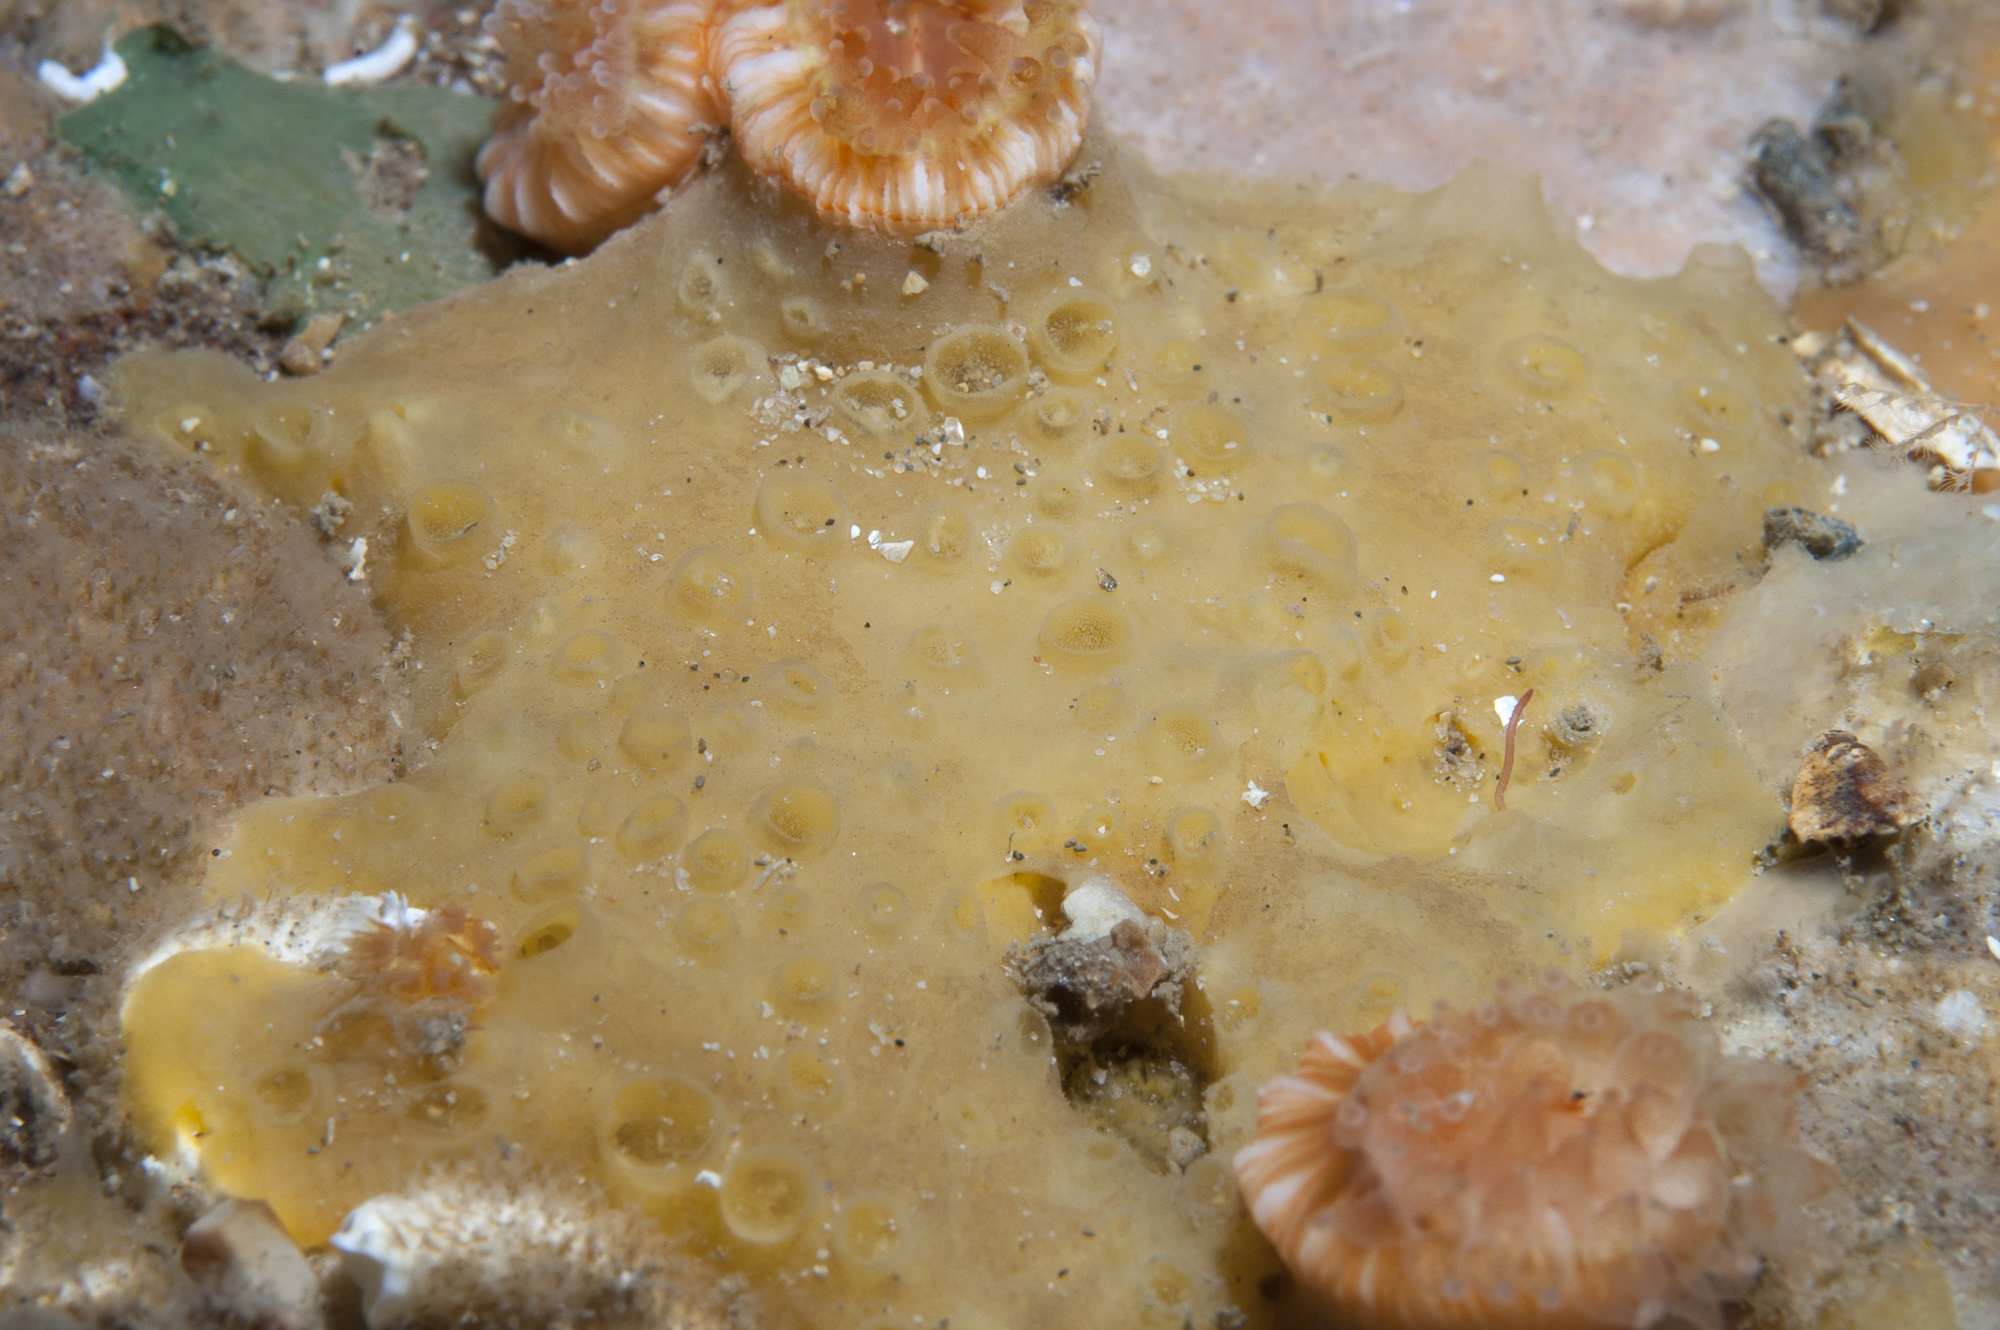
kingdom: Animalia
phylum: Porifera
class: Demospongiae
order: Poecilosclerida
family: Coelosphaeridae
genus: Lissodendoryx
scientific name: Lissodendoryx jenjonesae
